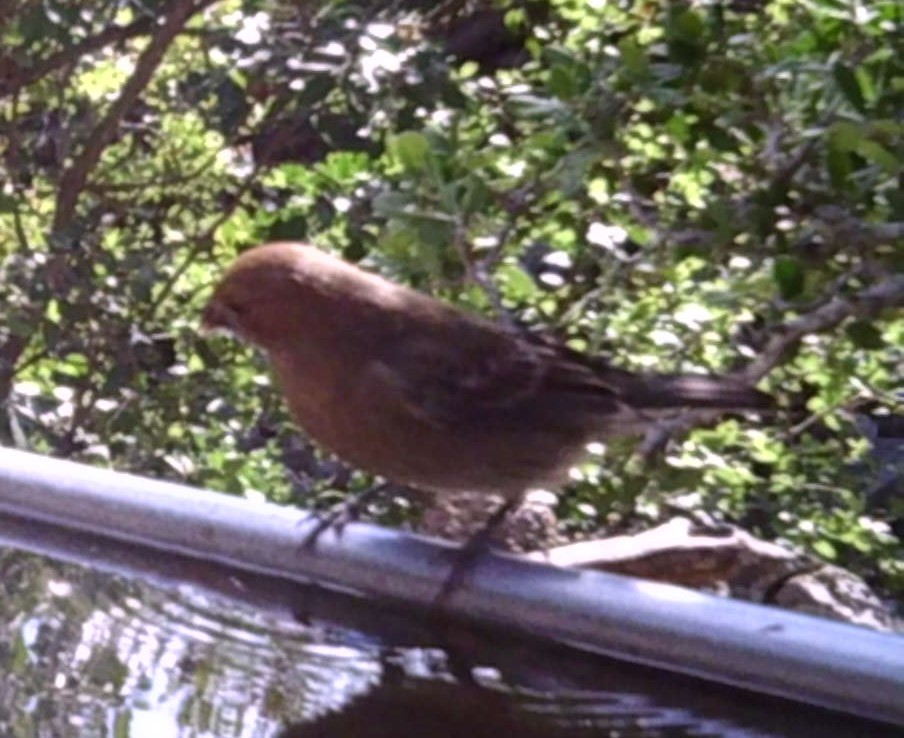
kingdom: Animalia
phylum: Chordata
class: Aves
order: Passeriformes
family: Fringillidae
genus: Haemorhous
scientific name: Haemorhous mexicanus
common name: House finch
